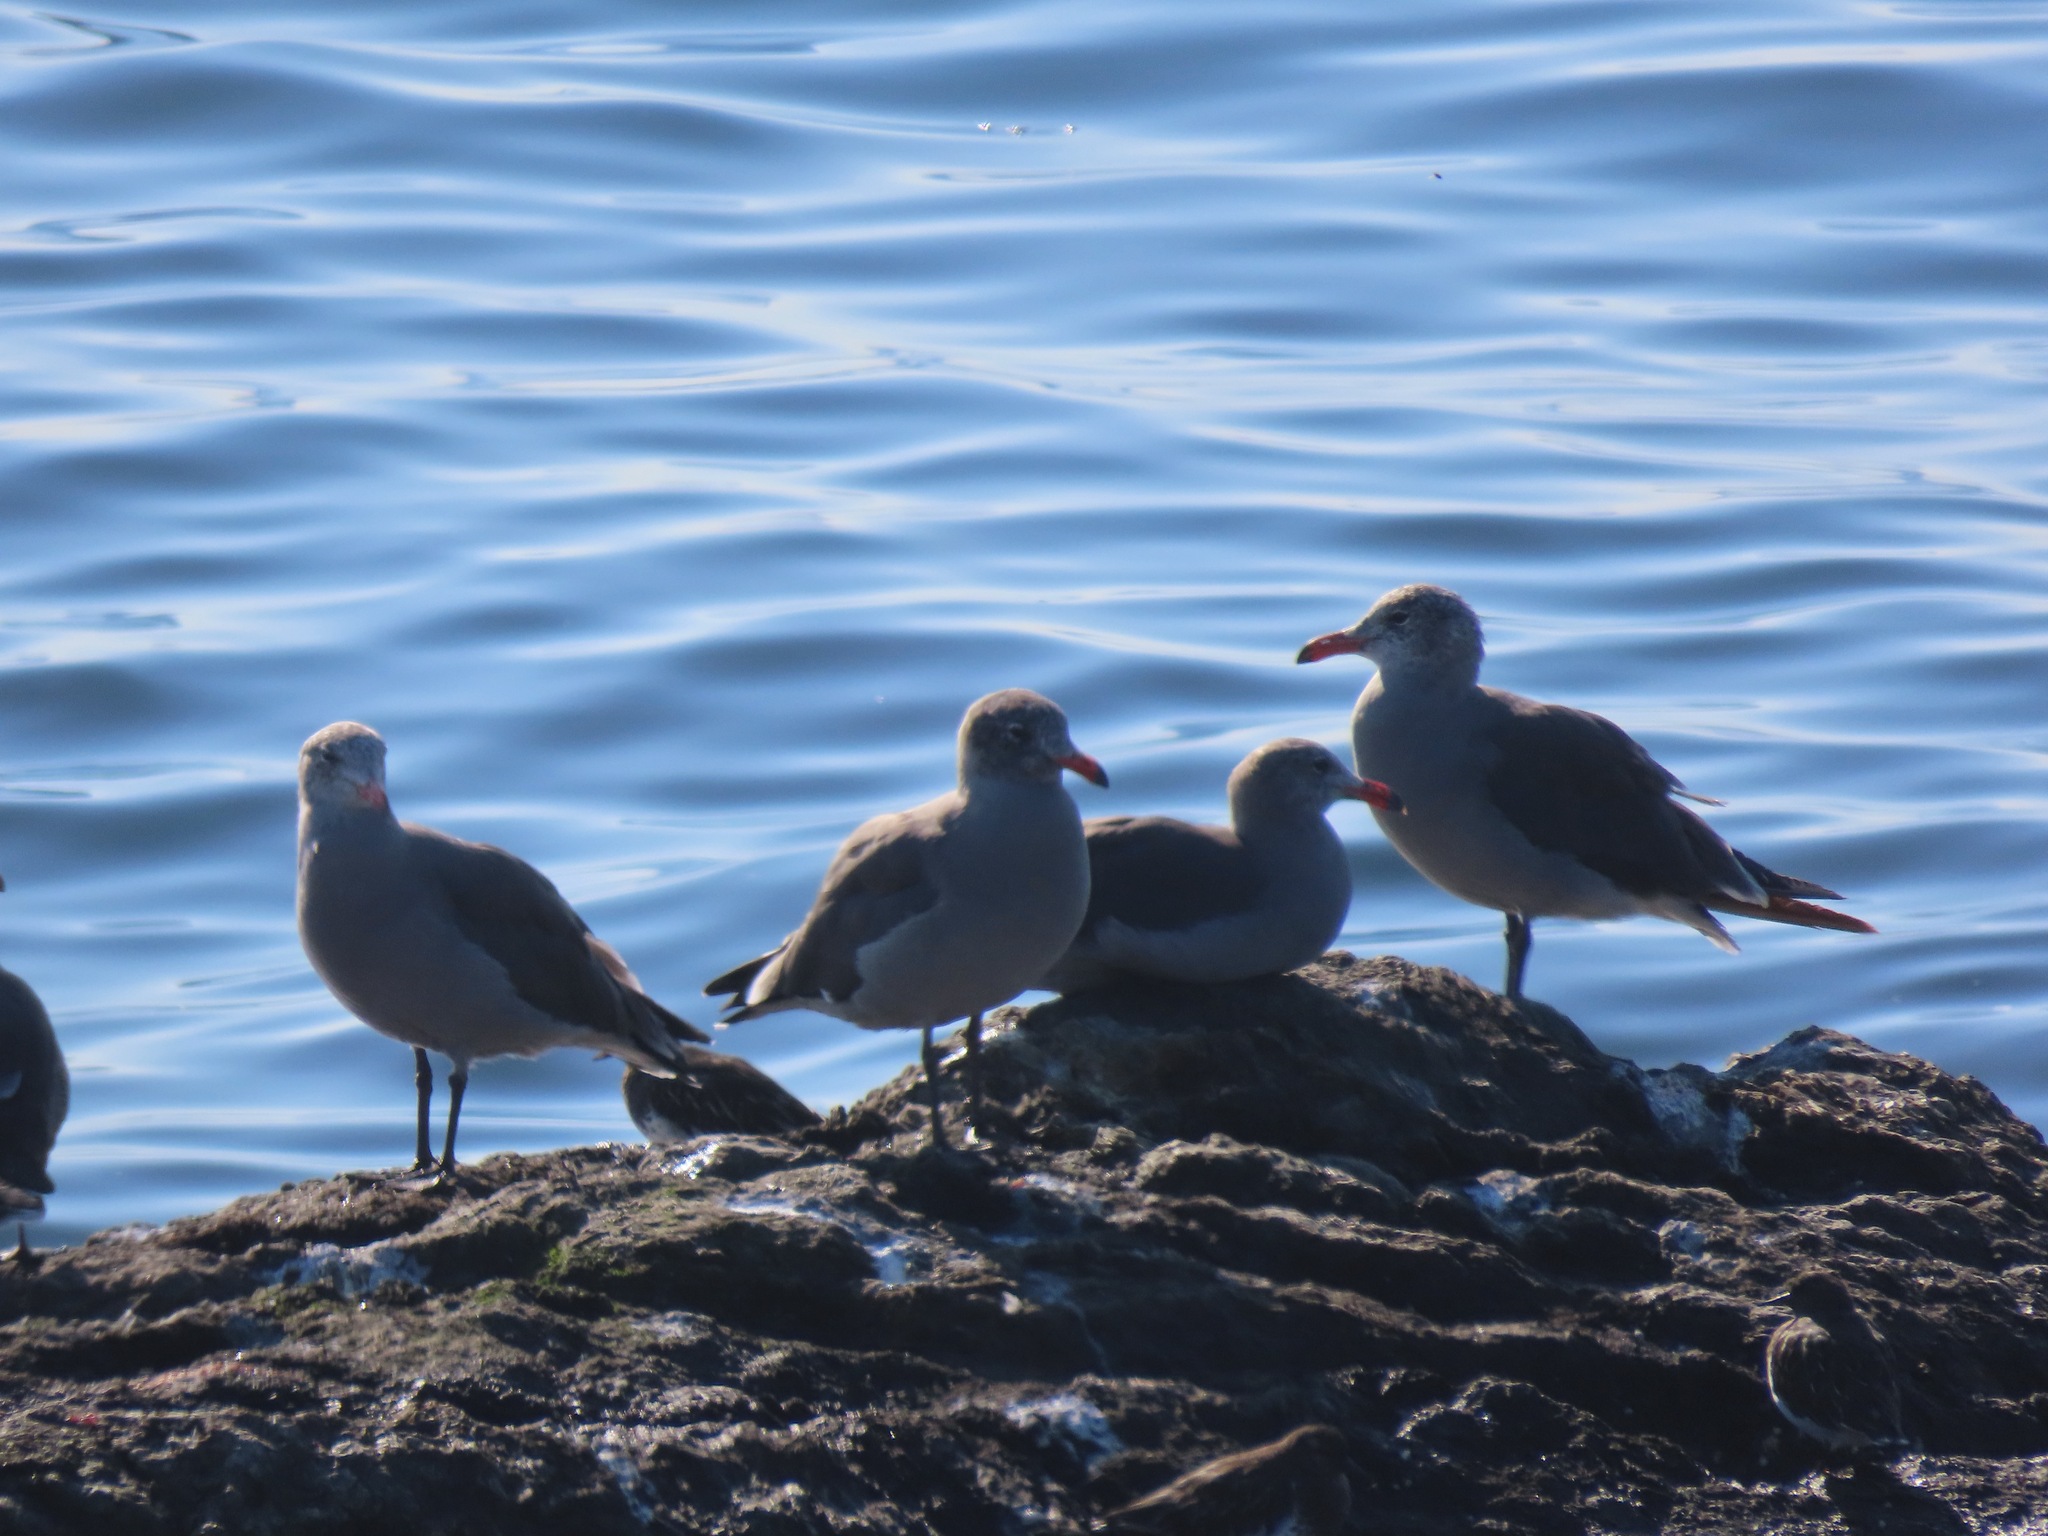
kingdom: Animalia
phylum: Chordata
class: Aves
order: Charadriiformes
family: Laridae
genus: Larus
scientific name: Larus heermanni
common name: Heermann's gull
